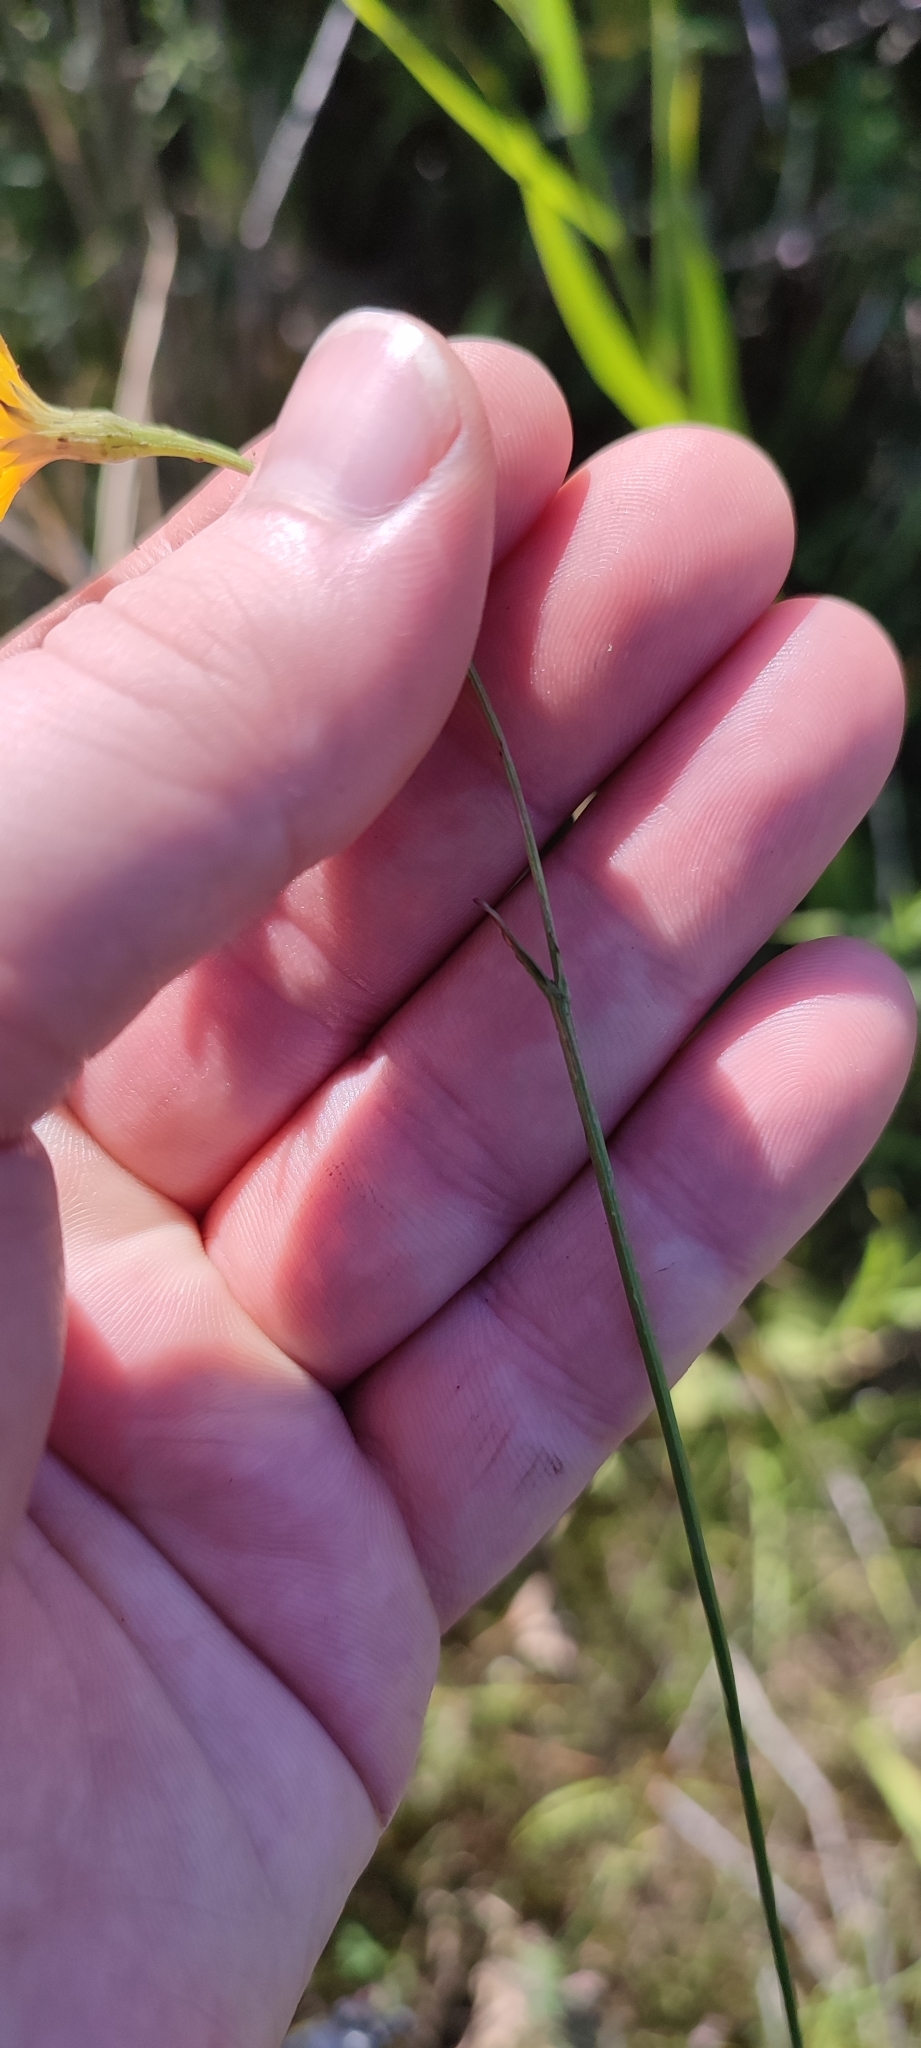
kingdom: Plantae
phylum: Tracheophyta
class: Magnoliopsida
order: Asterales
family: Asteraceae
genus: Scorzoneroides
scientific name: Scorzoneroides autumnalis
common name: Autumn hawkbit
